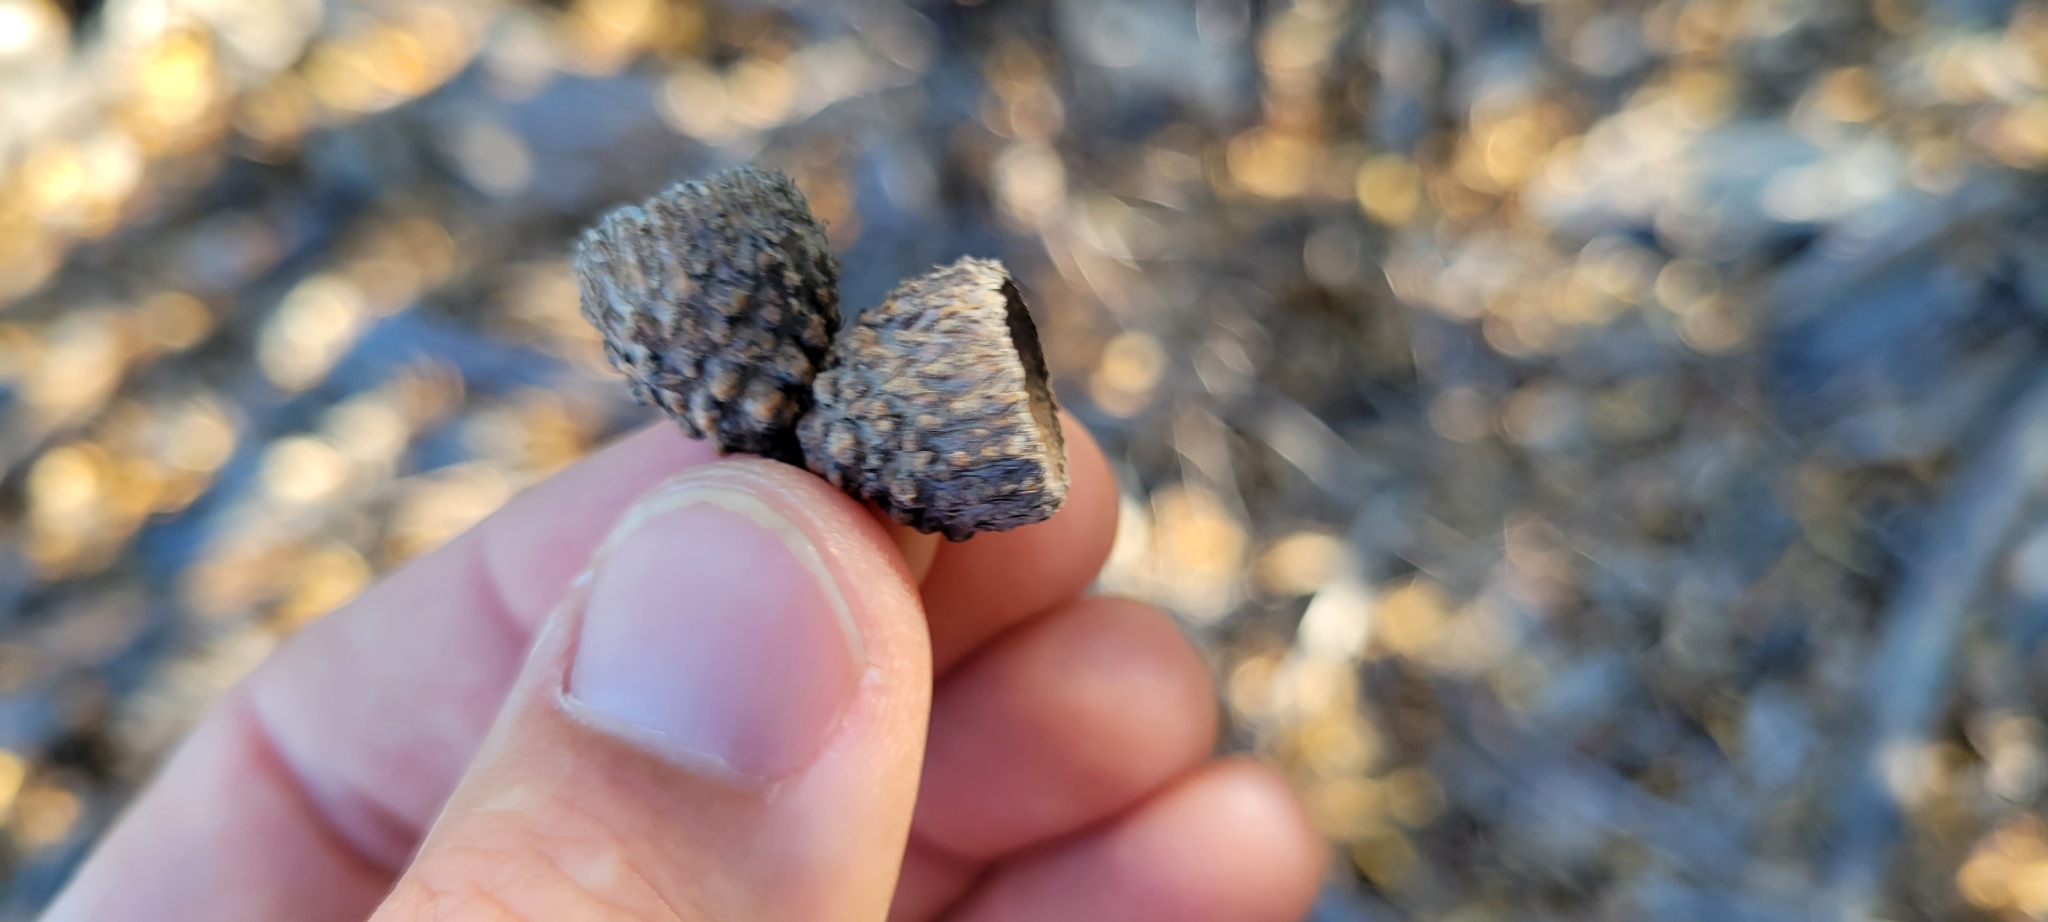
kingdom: Plantae
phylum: Tracheophyta
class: Magnoliopsida
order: Fagales
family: Fagaceae
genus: Quercus
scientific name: Quercus wislizeni
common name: Interior live oak
